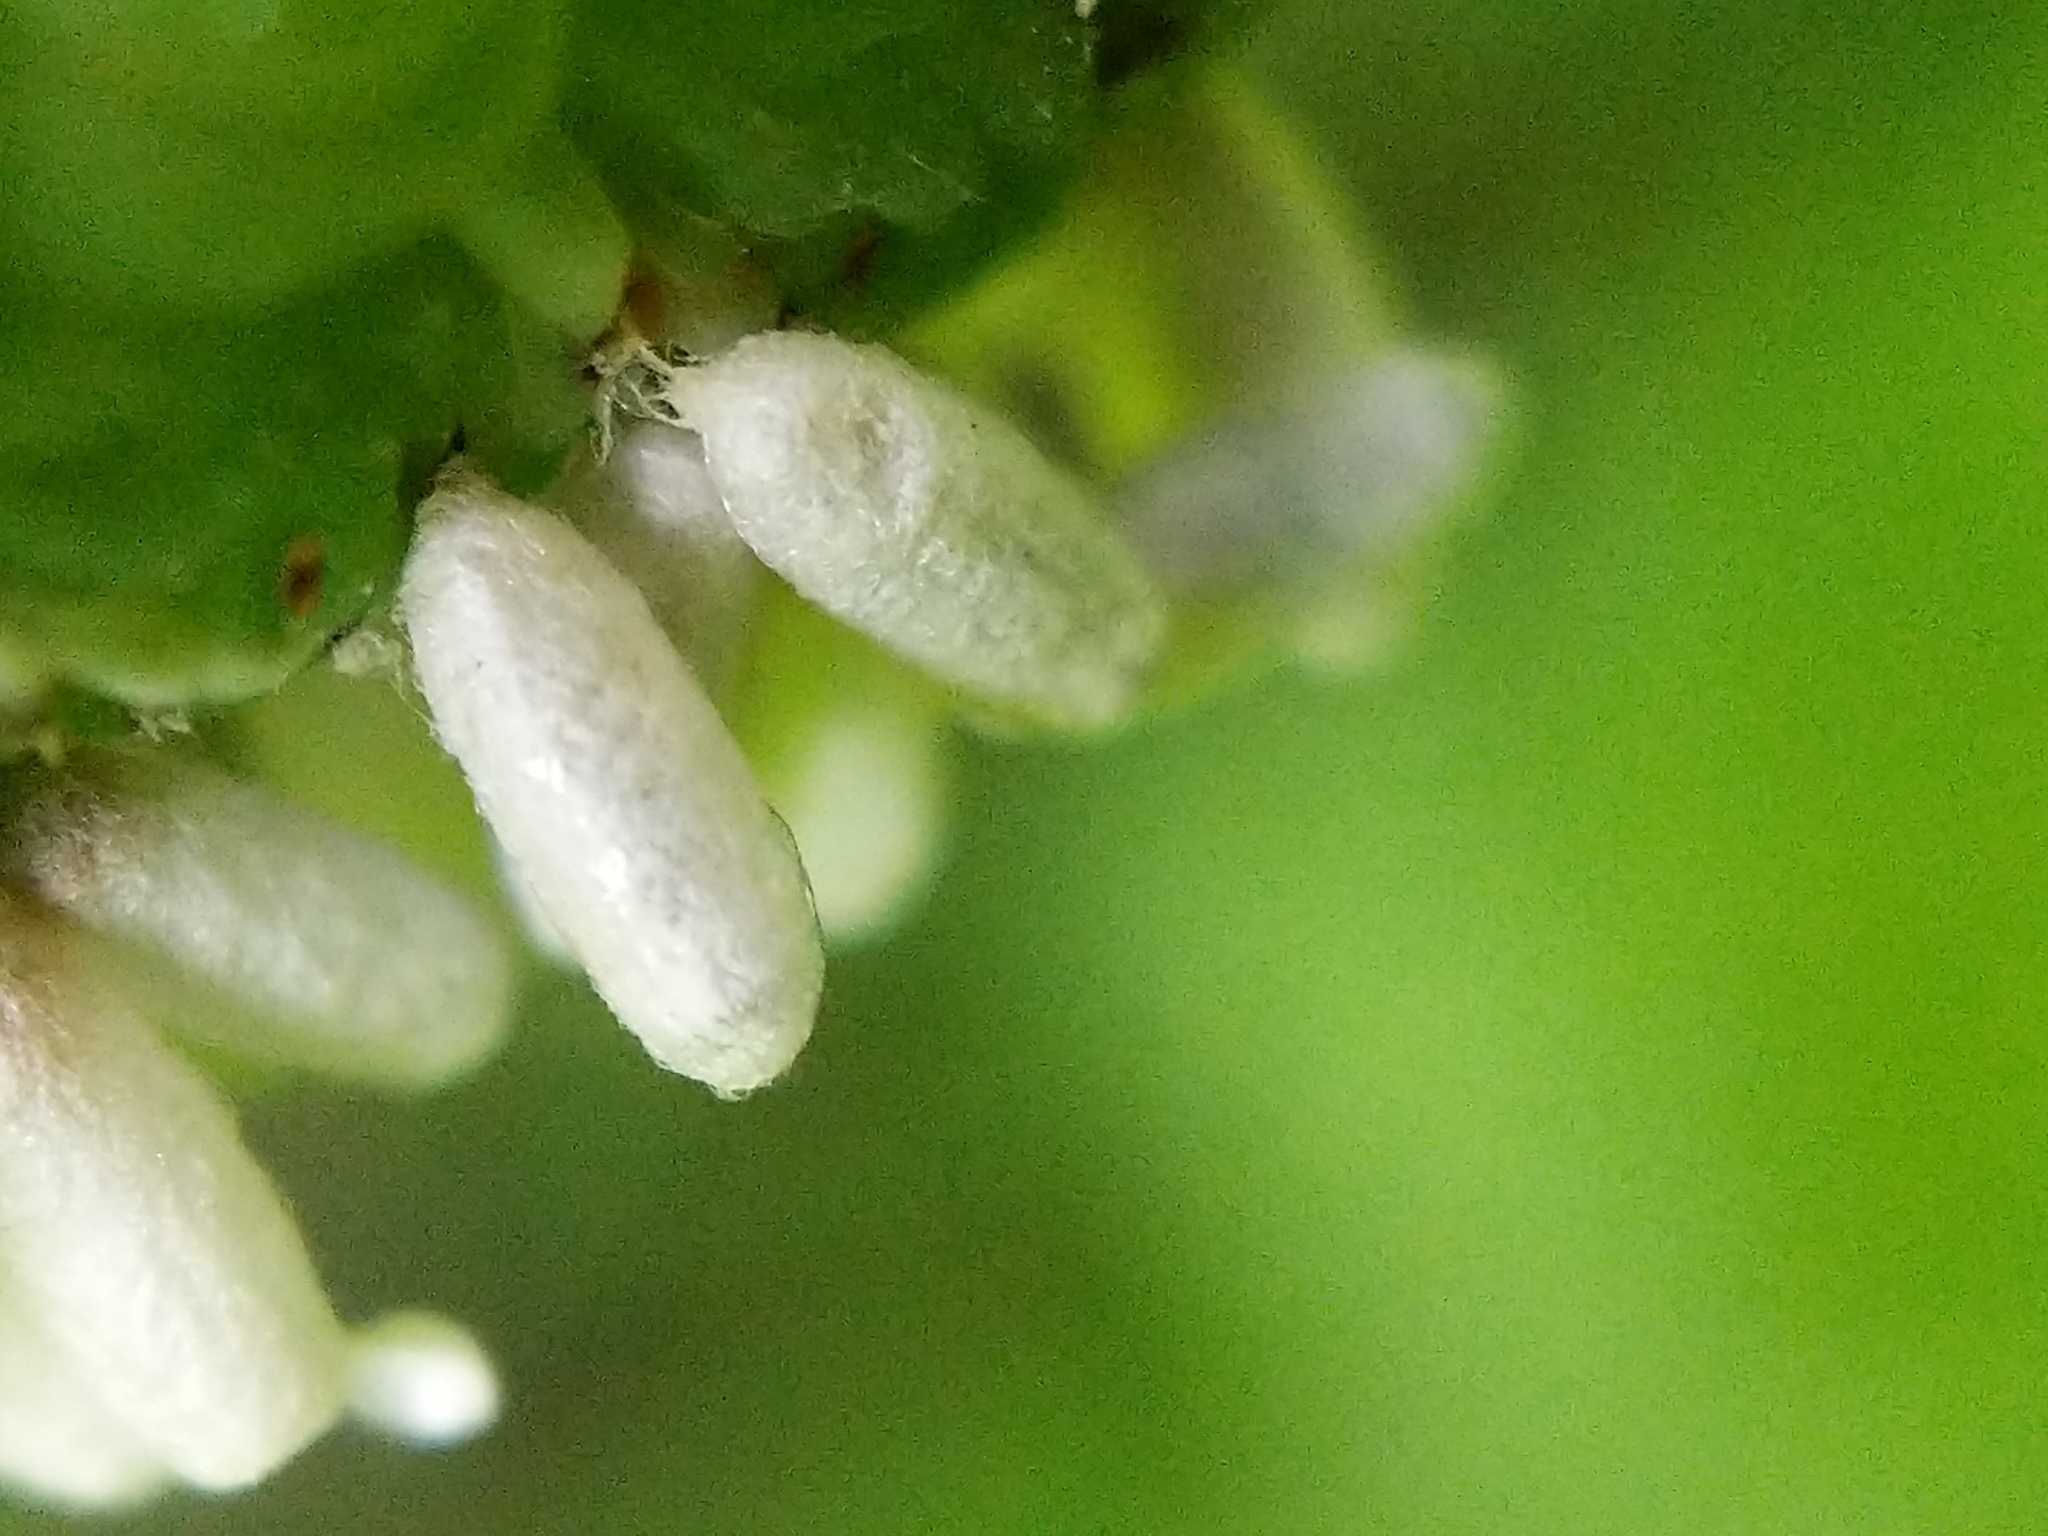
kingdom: Animalia
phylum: Arthropoda
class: Insecta
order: Hymenoptera
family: Braconidae
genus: Cotesia
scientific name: Cotesia congregata
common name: Hornworm parasitoid wasp
